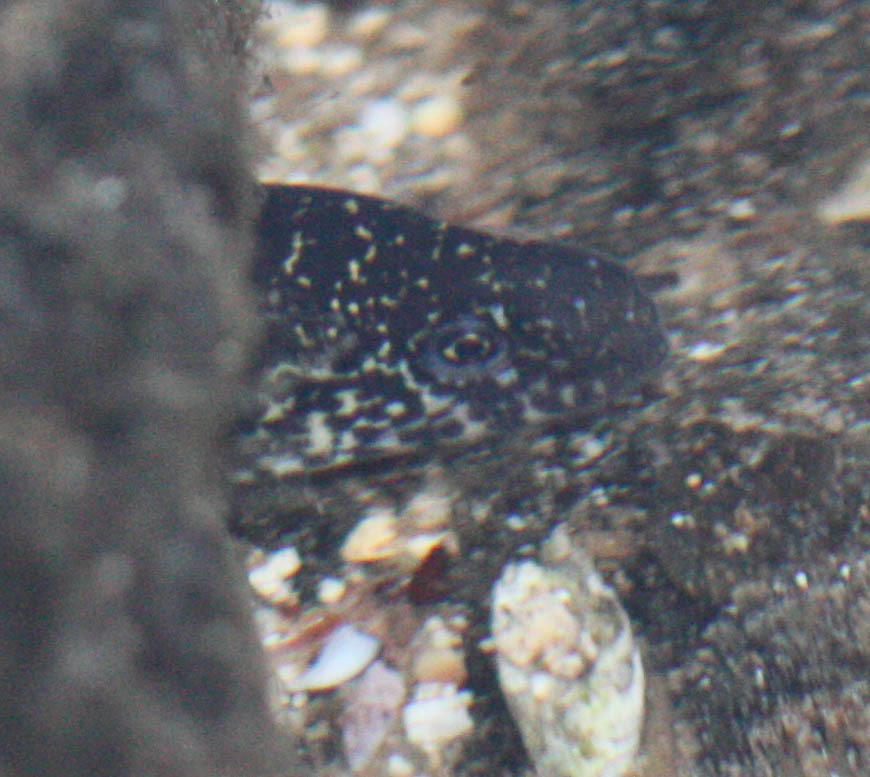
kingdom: Animalia
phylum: Chordata
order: Anguilliformes
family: Muraenidae
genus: Gymnothorax
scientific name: Gymnothorax pictus
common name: Peppered moray
